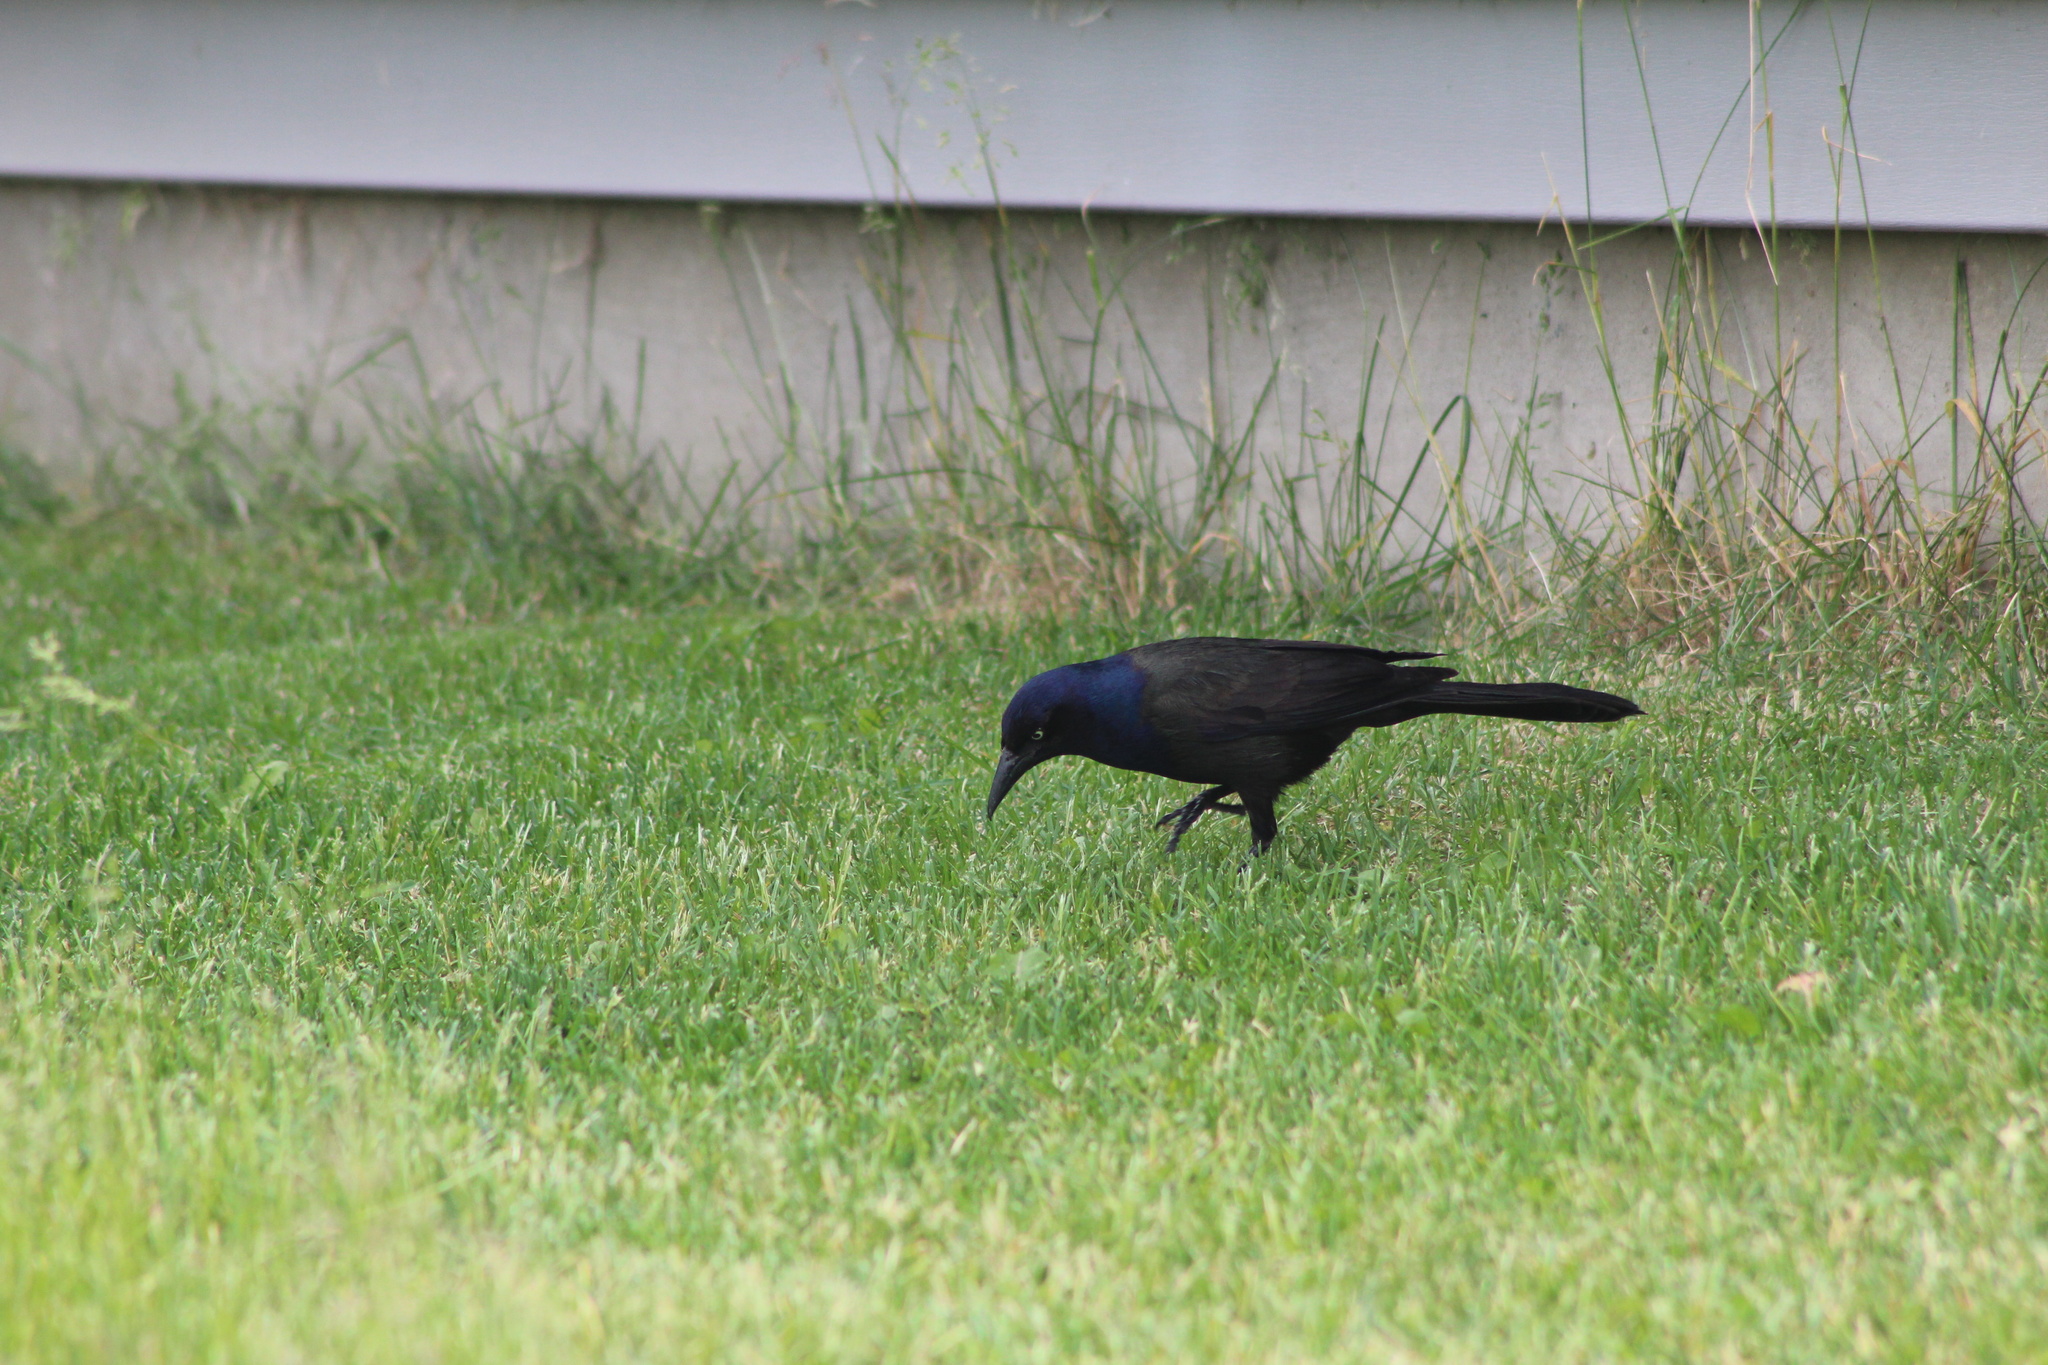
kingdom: Animalia
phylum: Chordata
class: Aves
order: Passeriformes
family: Icteridae
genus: Quiscalus
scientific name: Quiscalus quiscula
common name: Common grackle
